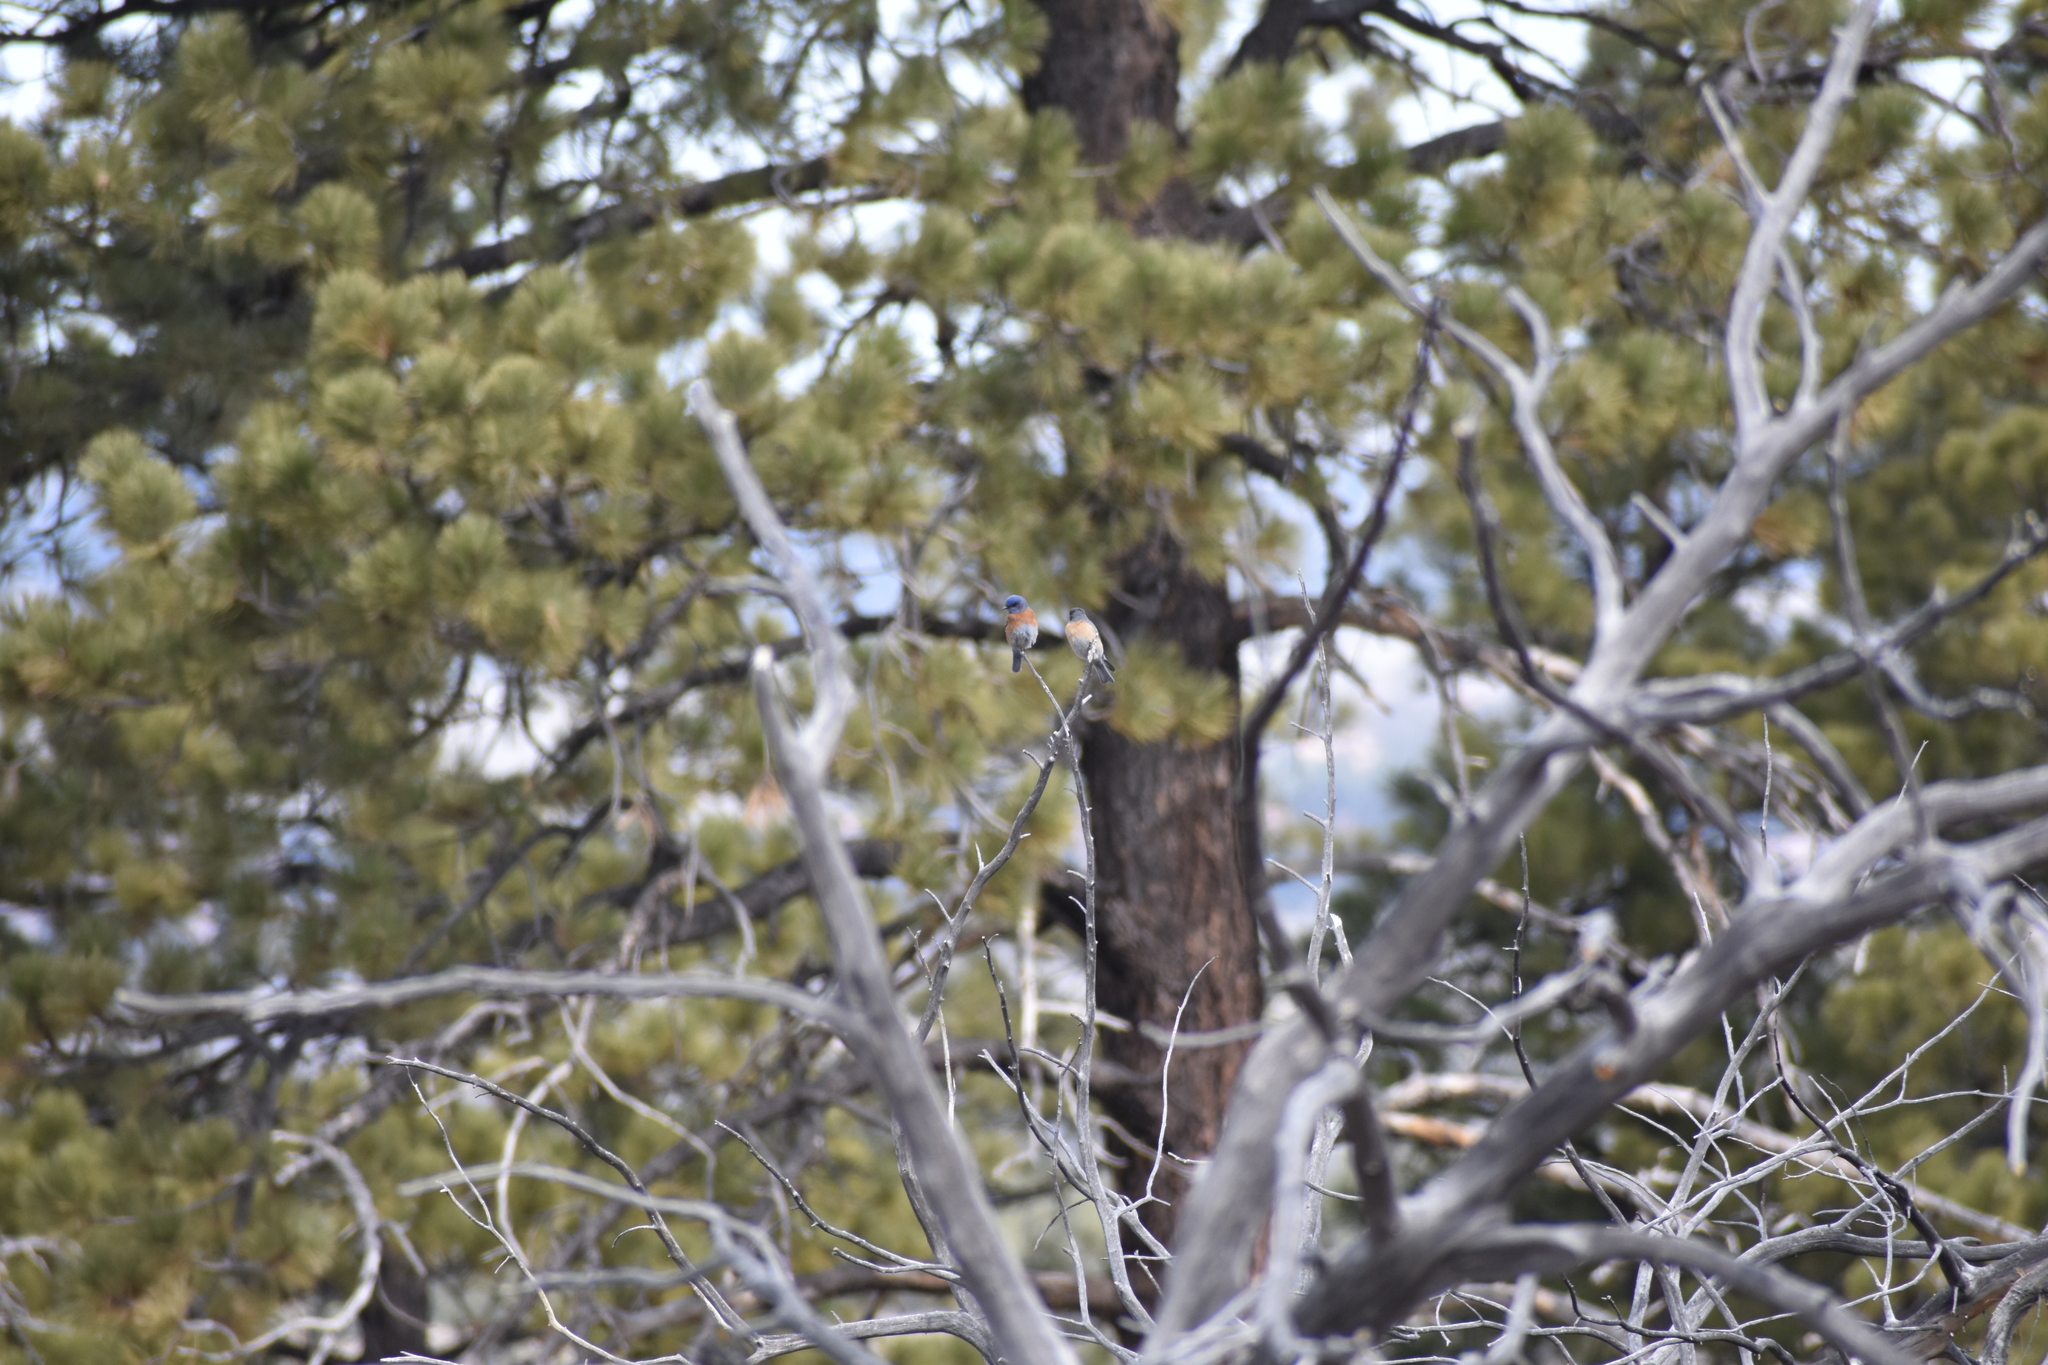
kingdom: Animalia
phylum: Chordata
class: Aves
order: Passeriformes
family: Turdidae
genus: Sialia
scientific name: Sialia mexicana
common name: Western bluebird
